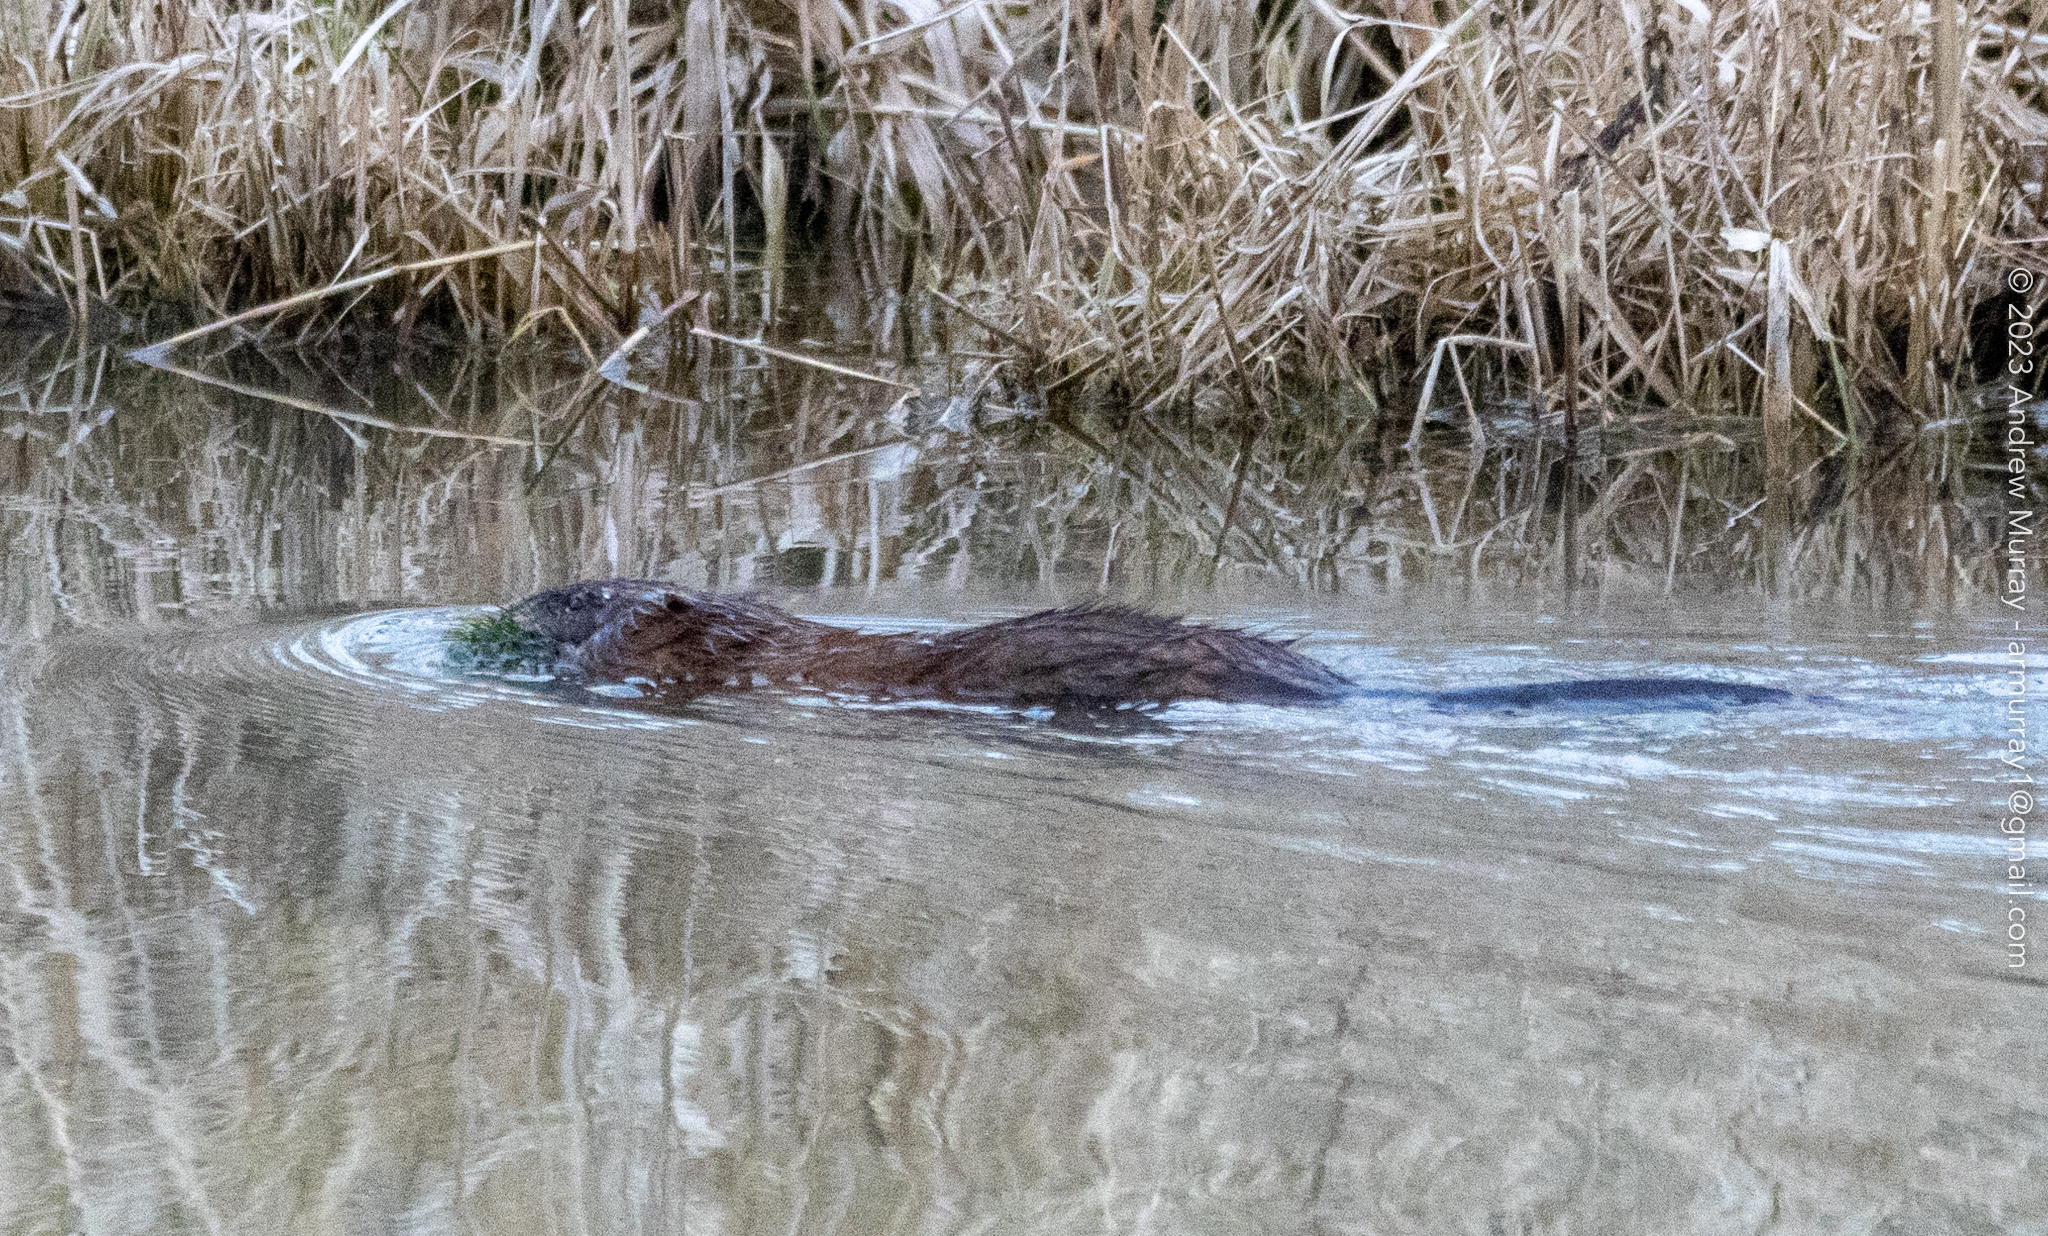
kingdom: Animalia
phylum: Chordata
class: Mammalia
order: Rodentia
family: Cricetidae
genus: Ondatra
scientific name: Ondatra zibethicus
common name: Muskrat
